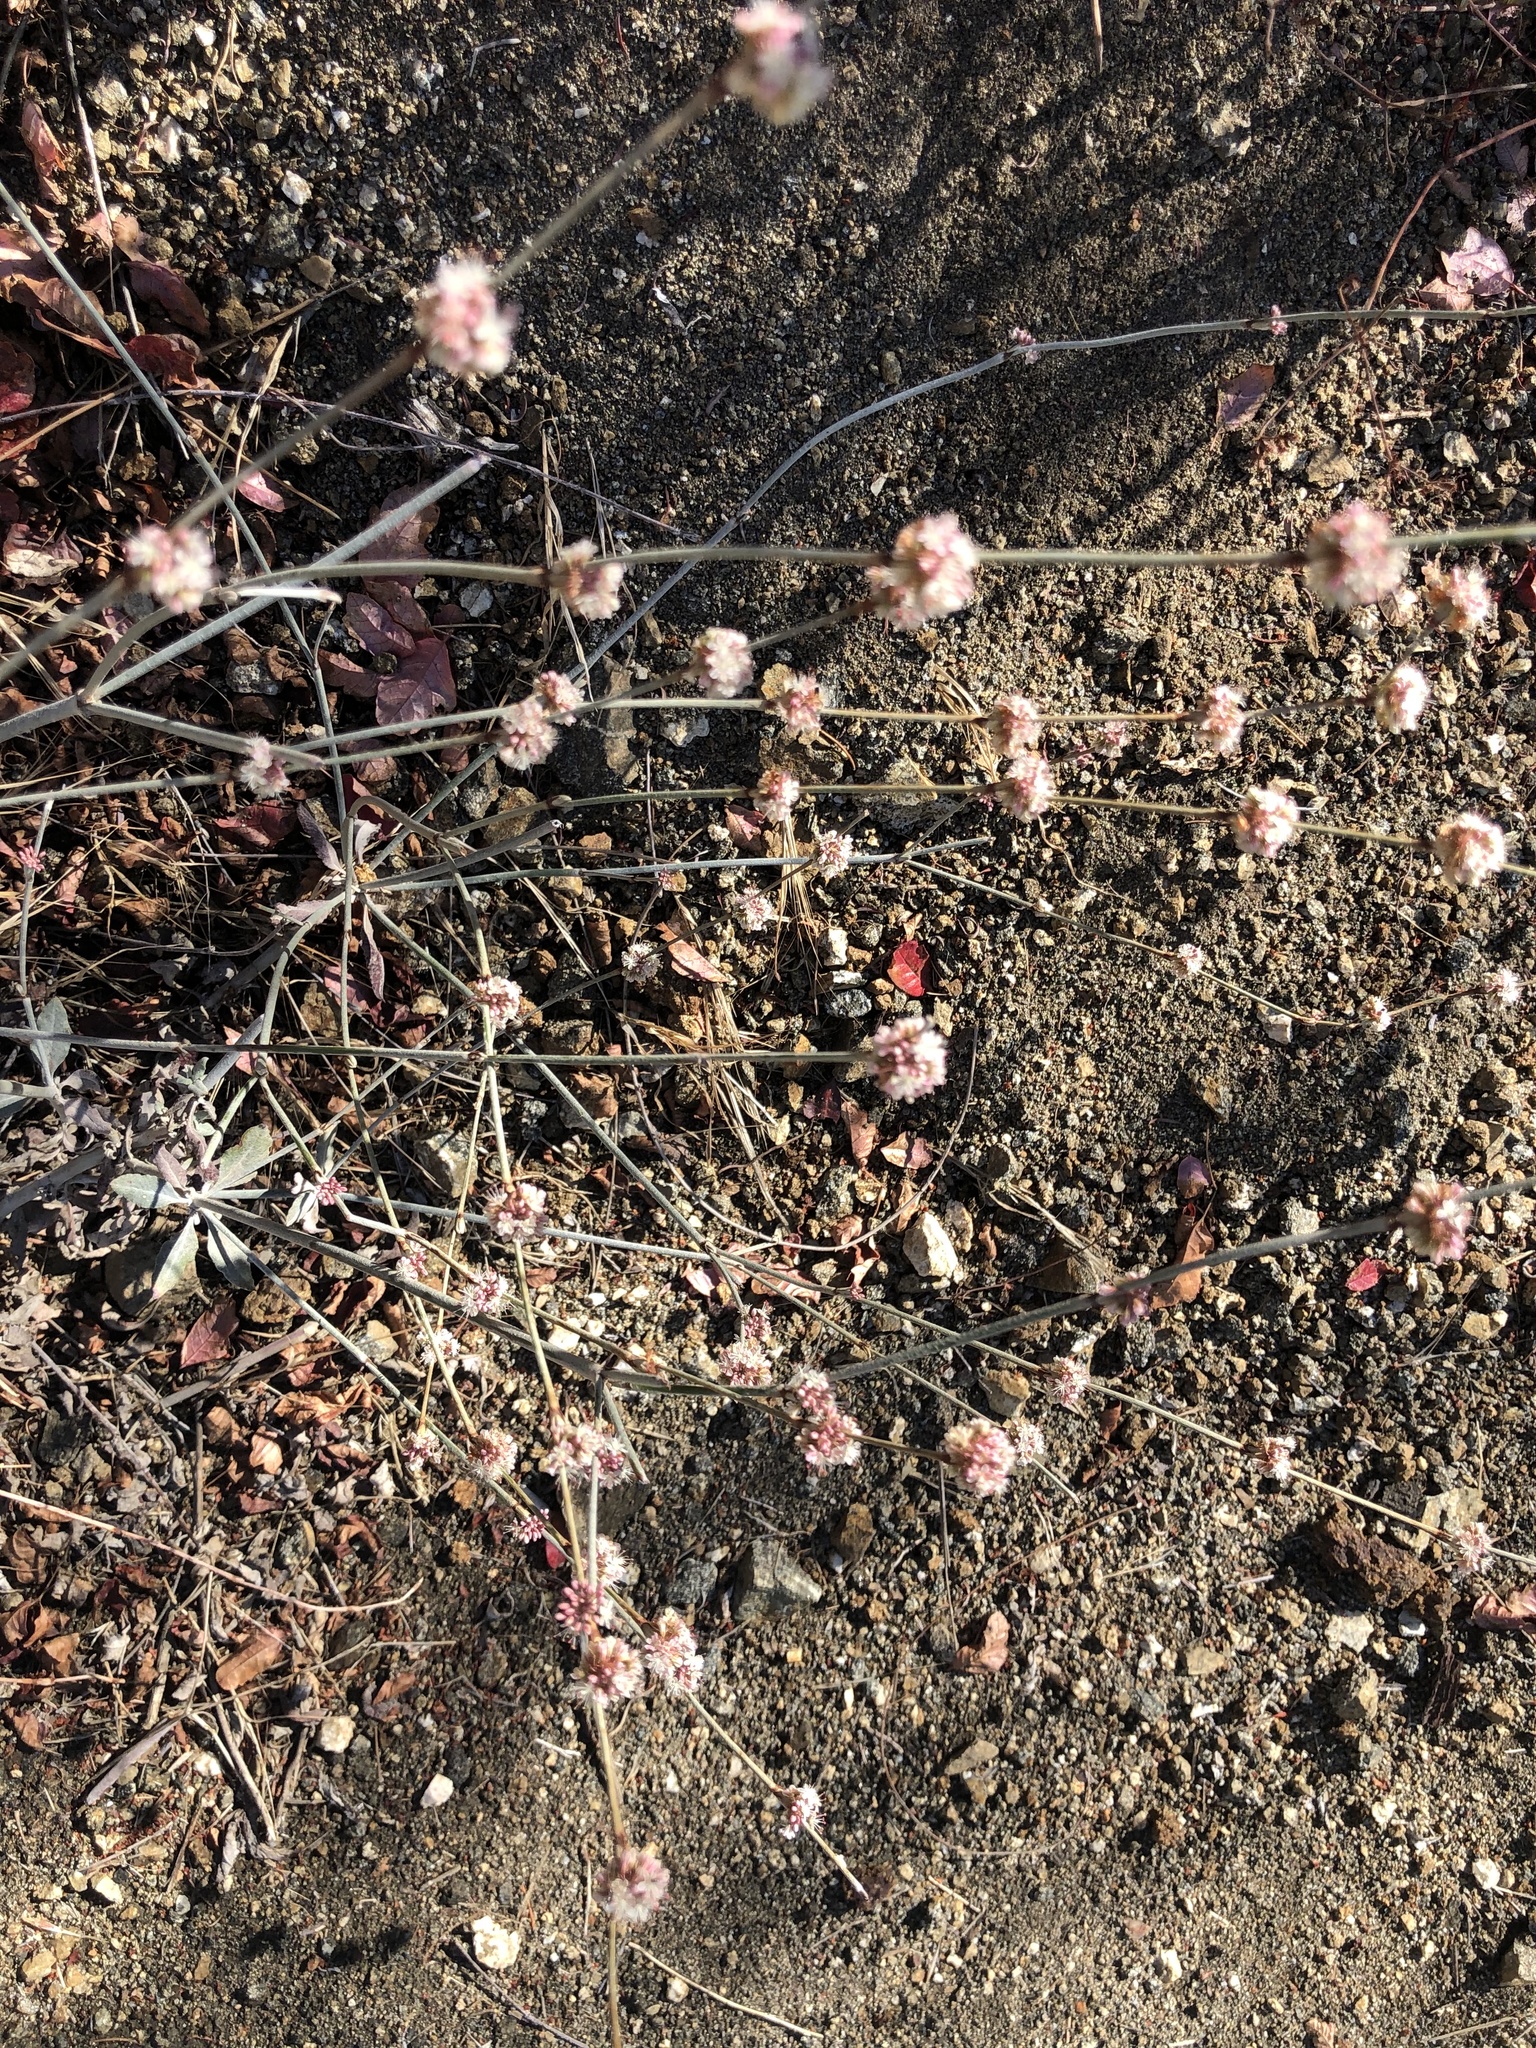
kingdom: Plantae
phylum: Tracheophyta
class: Magnoliopsida
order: Caryophyllales
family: Polygonaceae
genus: Eriogonum
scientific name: Eriogonum elongatum
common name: Long-stem wild buckwheat
